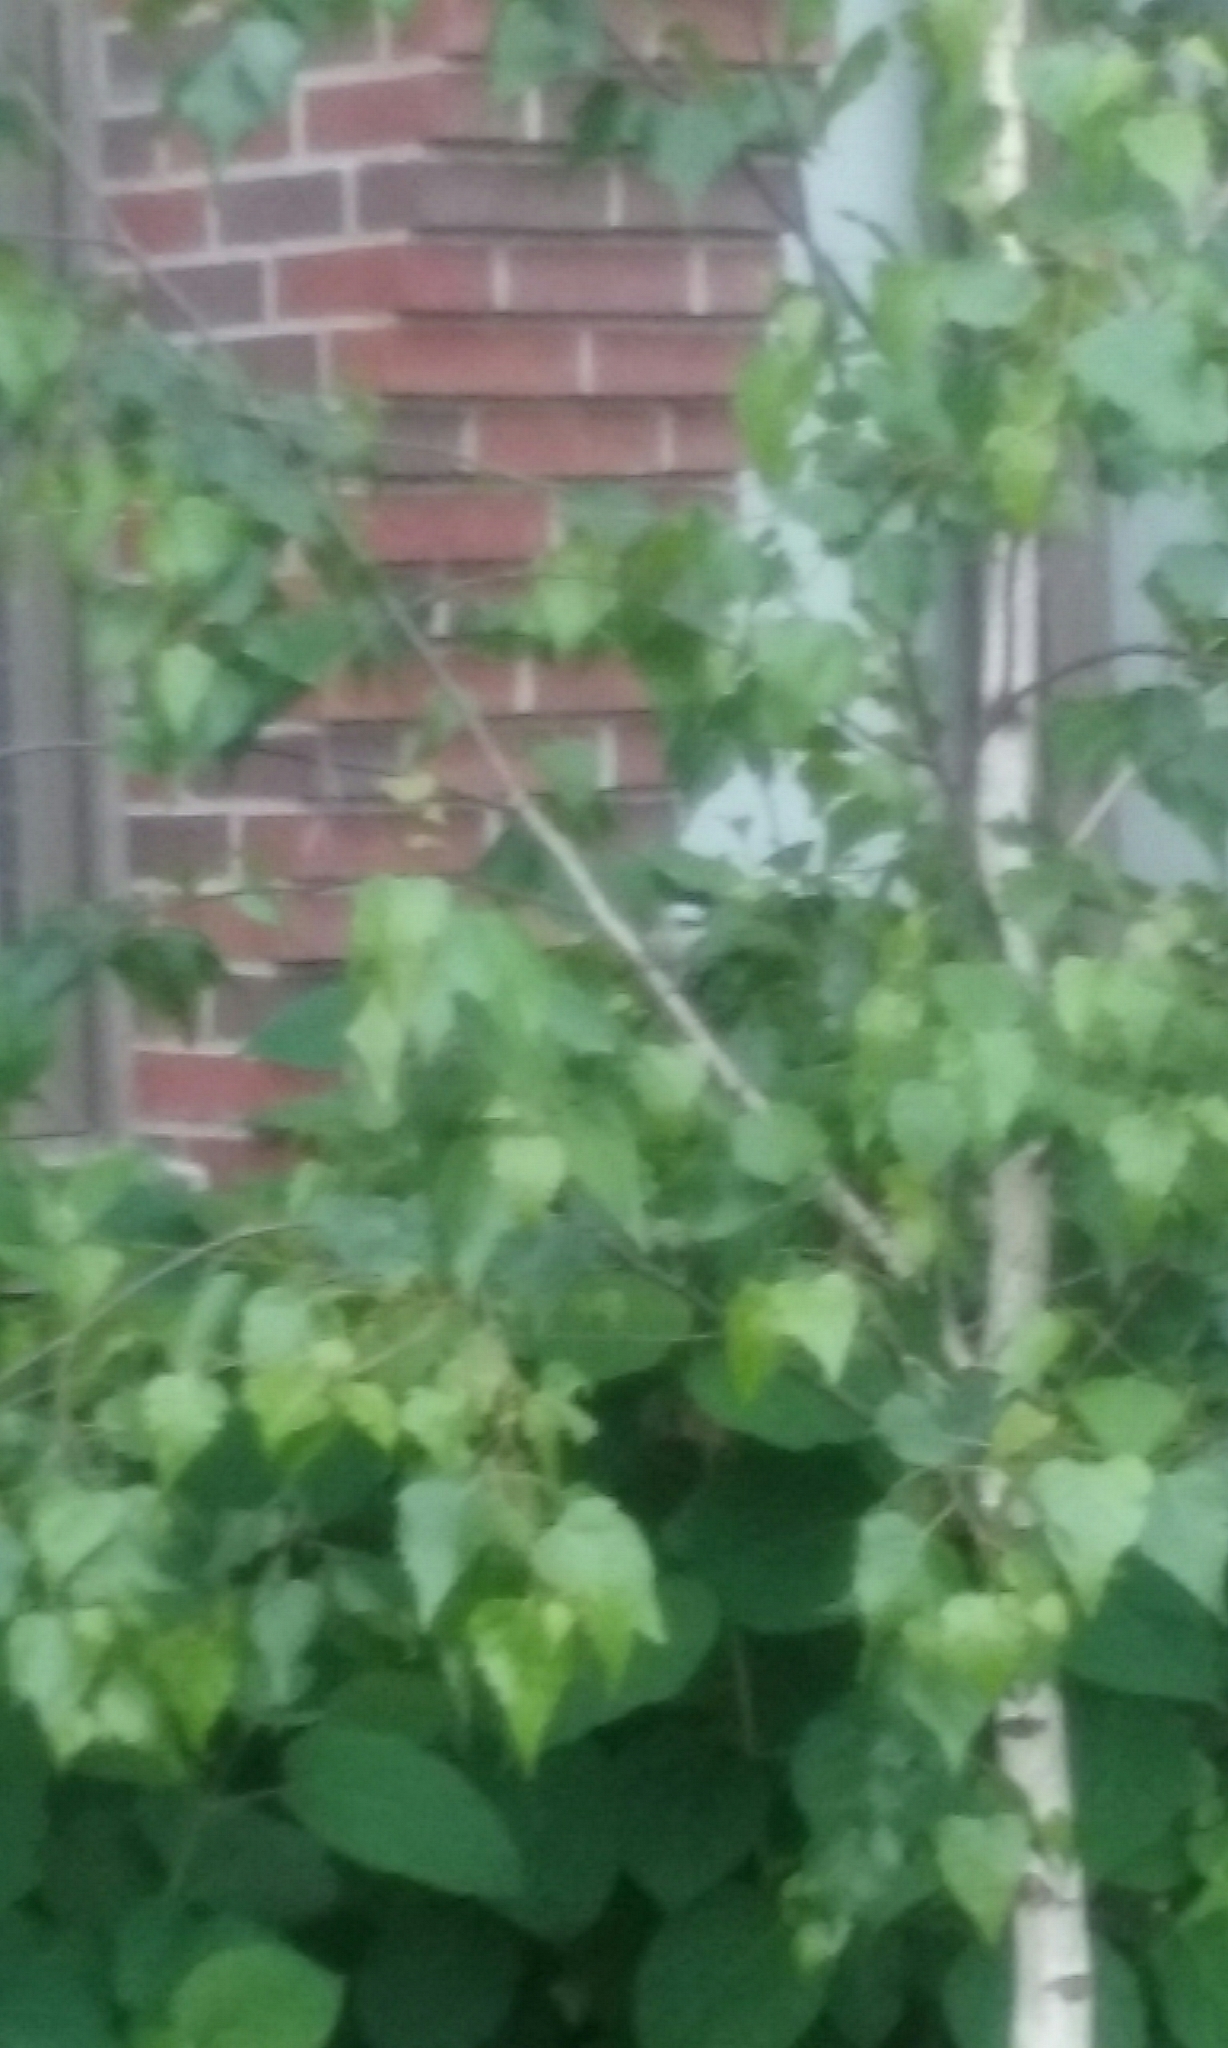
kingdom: Animalia
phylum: Chordata
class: Aves
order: Passeriformes
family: Paridae
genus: Poecile
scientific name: Poecile atricapillus
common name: Black-capped chickadee
